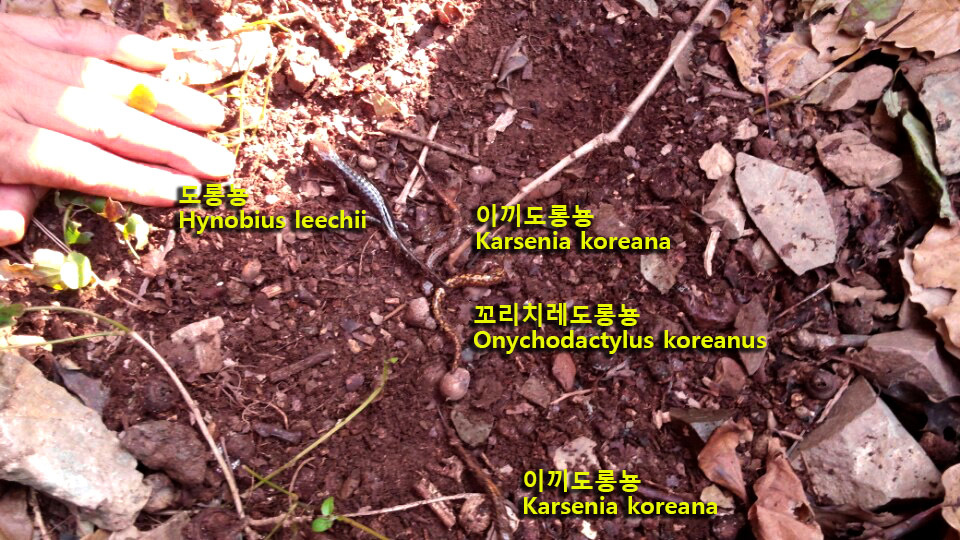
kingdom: Animalia
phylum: Chordata
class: Amphibia
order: Caudata
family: Hynobiidae
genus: Onychodactylus
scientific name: Onychodactylus koreanus
